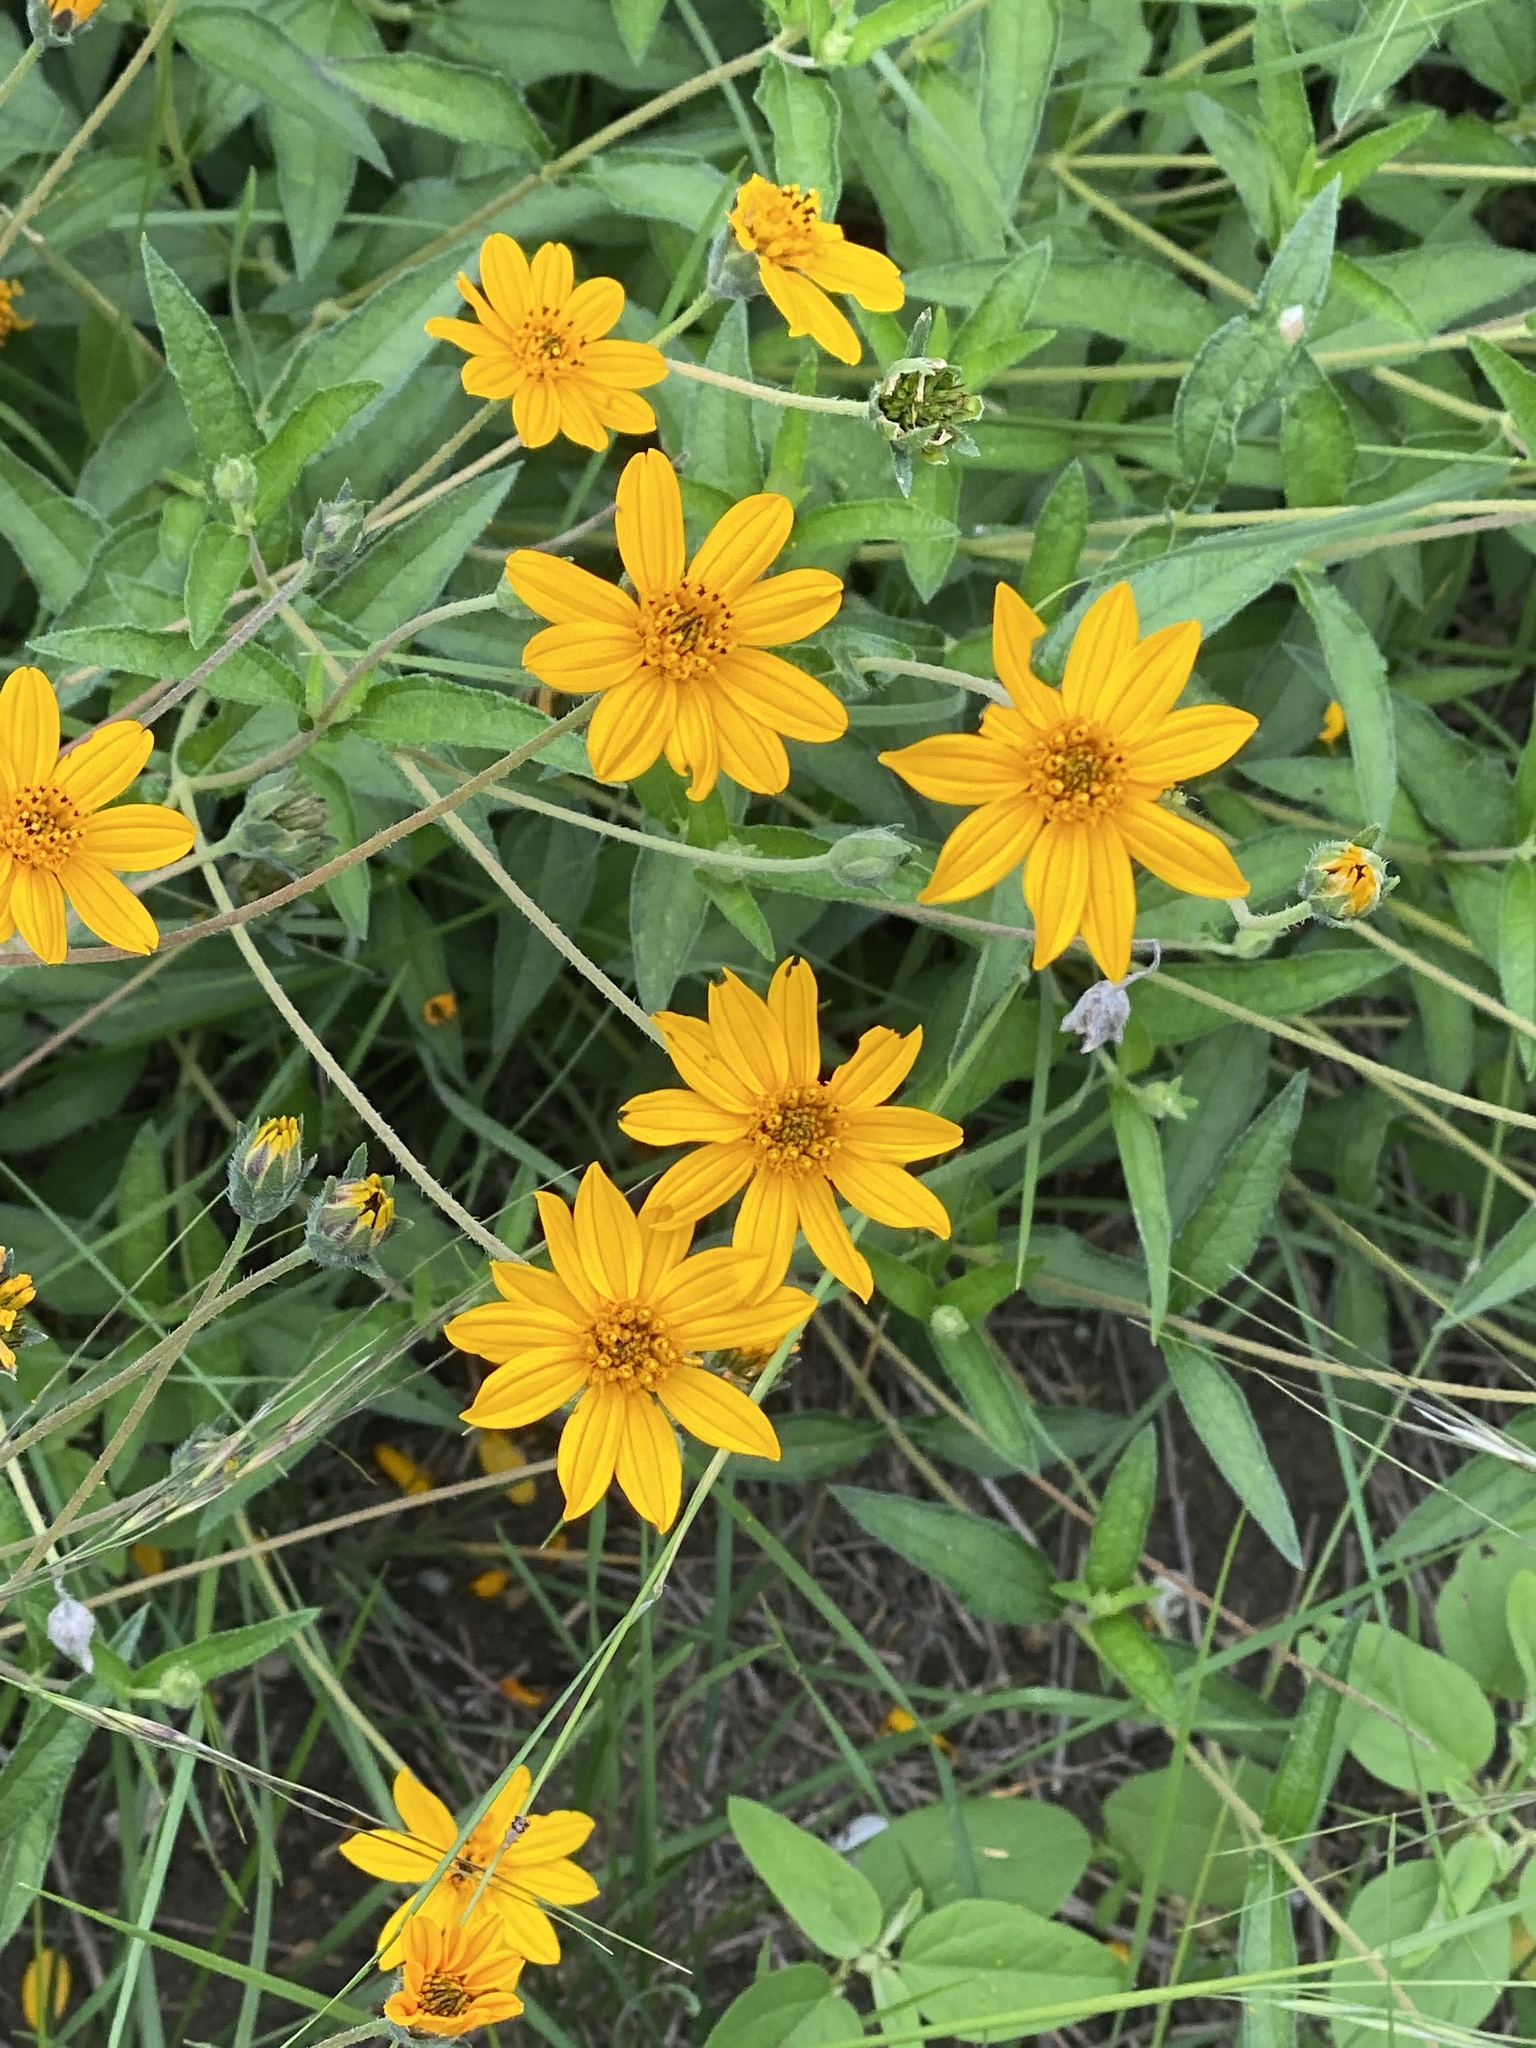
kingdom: Plantae
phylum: Tracheophyta
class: Magnoliopsida
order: Asterales
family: Asteraceae
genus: Wedelia
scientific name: Wedelia acapulcensis
